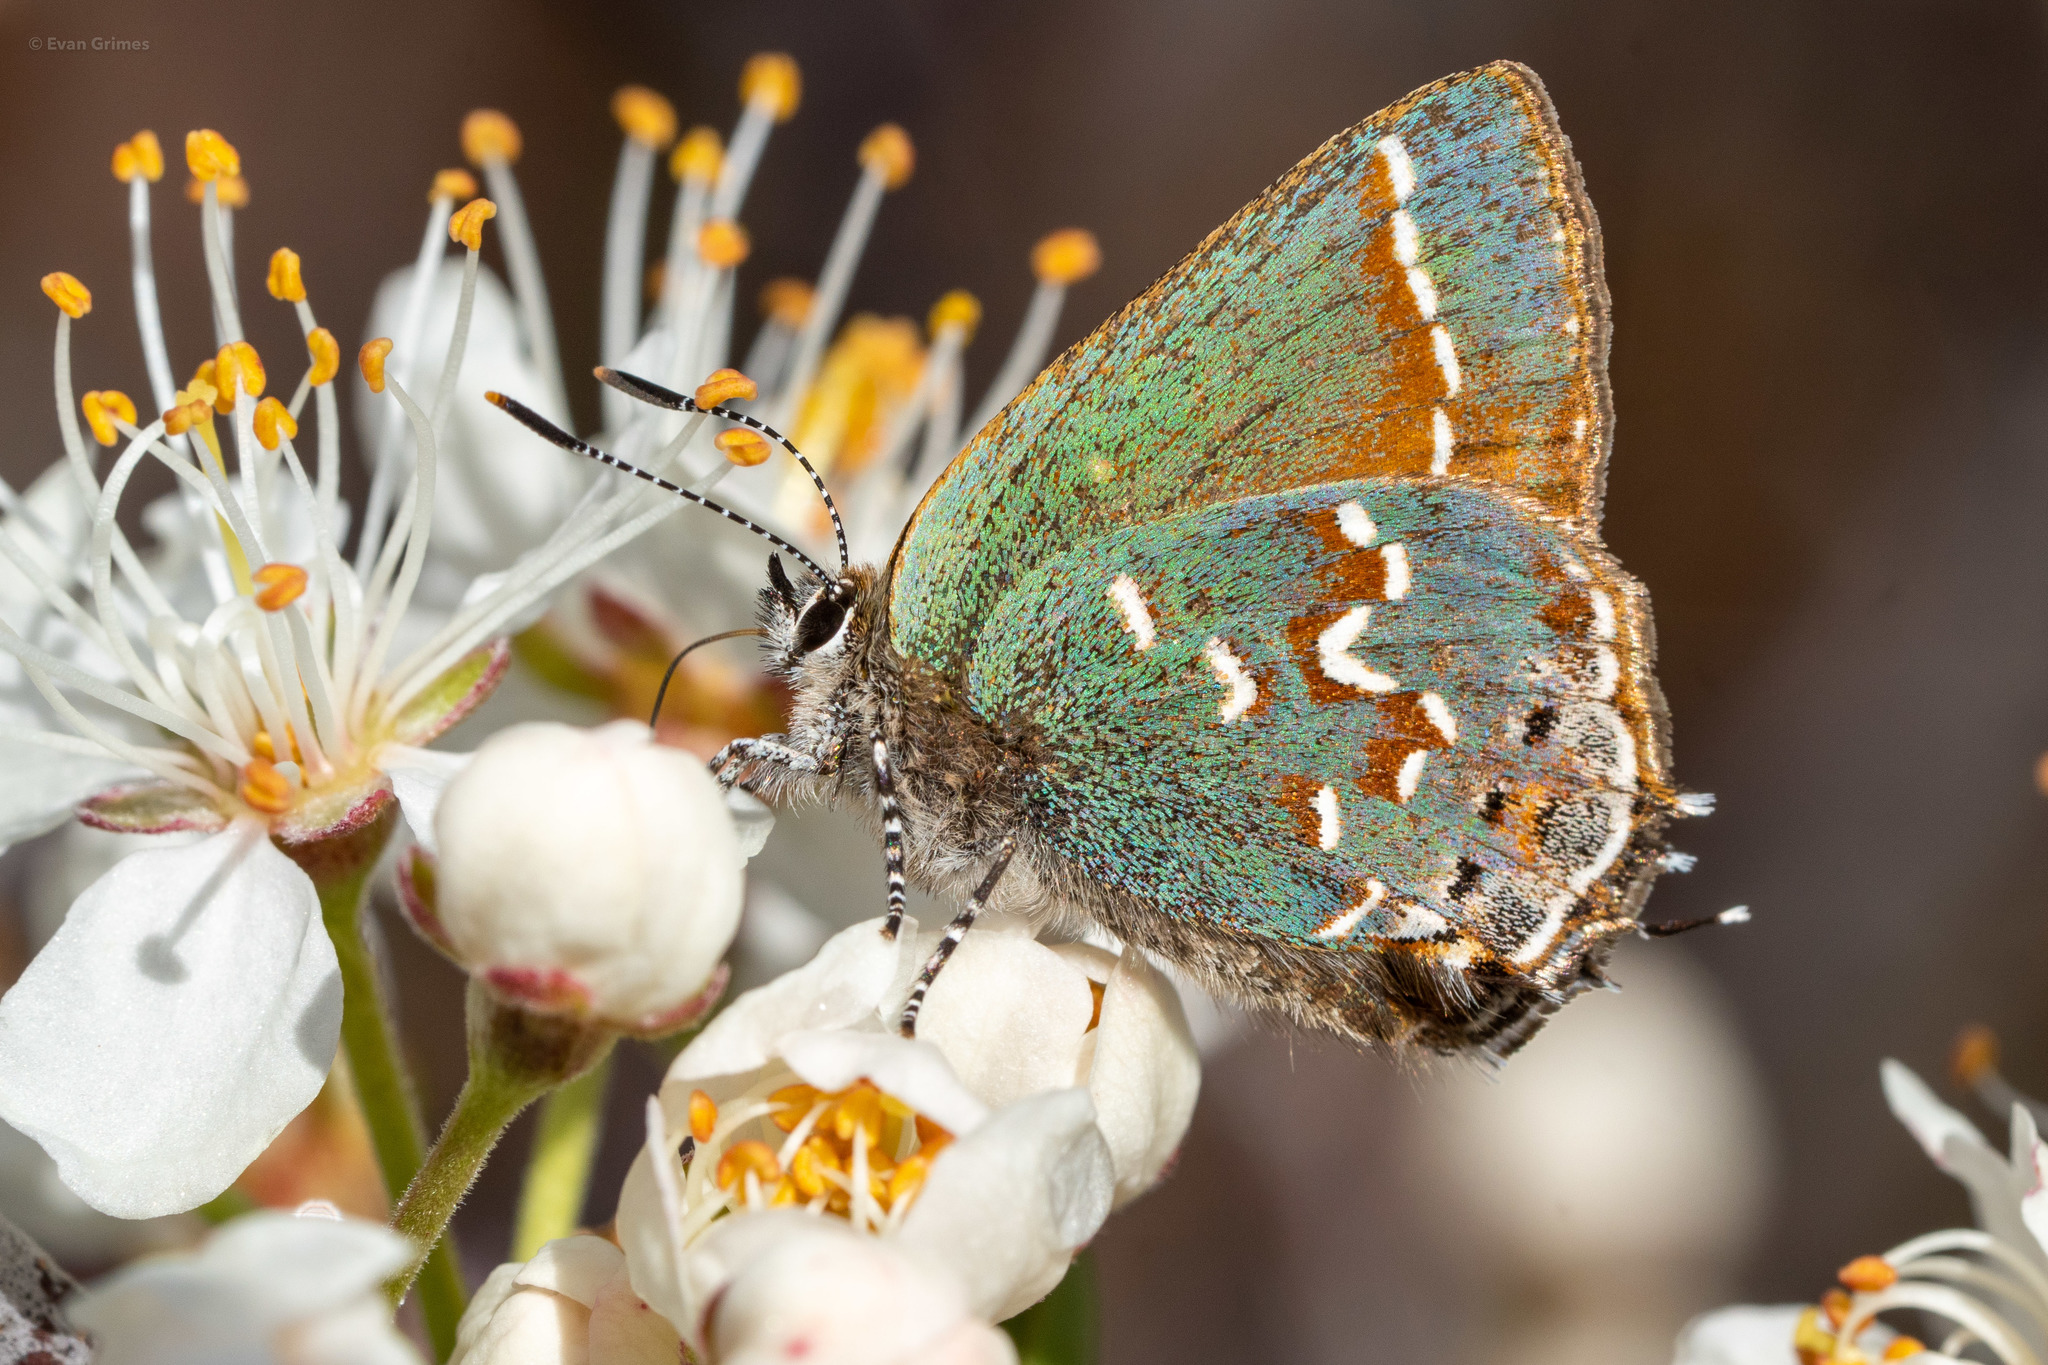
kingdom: Animalia
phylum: Arthropoda
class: Insecta
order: Lepidoptera
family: Lycaenidae
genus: Mitoura
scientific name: Mitoura gryneus
